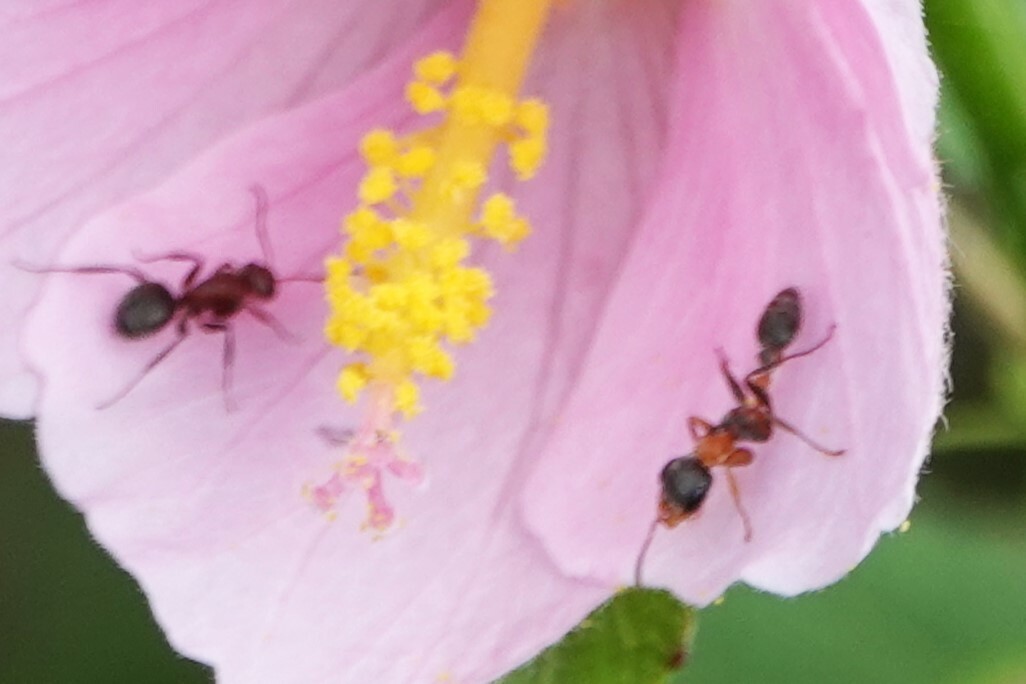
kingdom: Animalia
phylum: Arthropoda
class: Insecta
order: Hymenoptera
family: Formicidae
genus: Pseudomyrmex
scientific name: Pseudomyrmex gracilis
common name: Graceful twig ant
